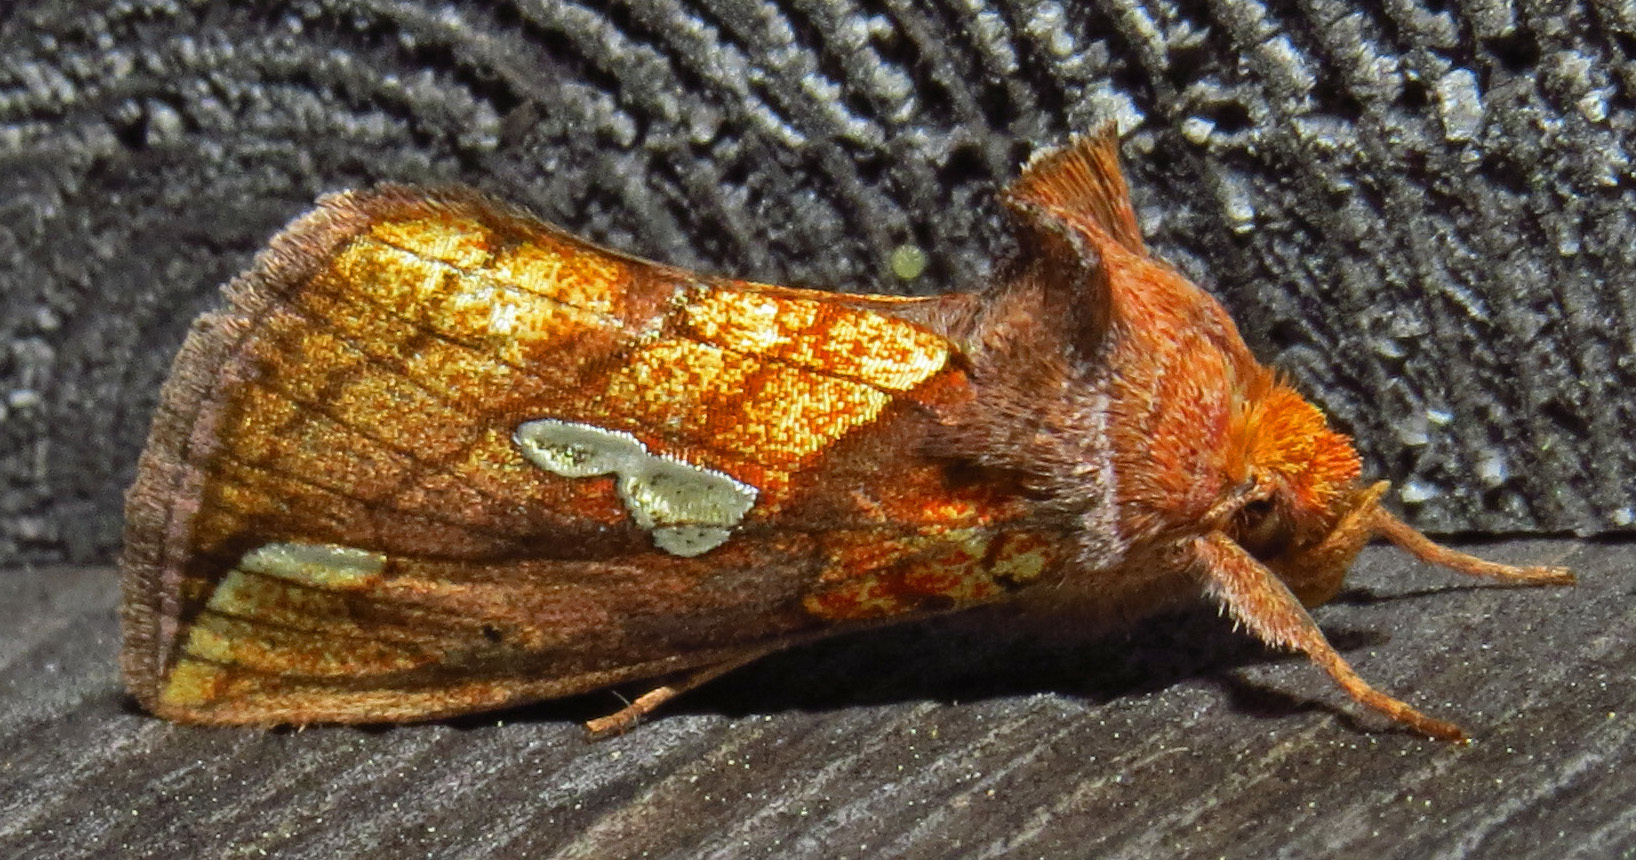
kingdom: Animalia
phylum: Arthropoda
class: Insecta
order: Lepidoptera
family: Noctuidae
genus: Plusia
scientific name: Plusia putnami
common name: Lempke's gold spot
